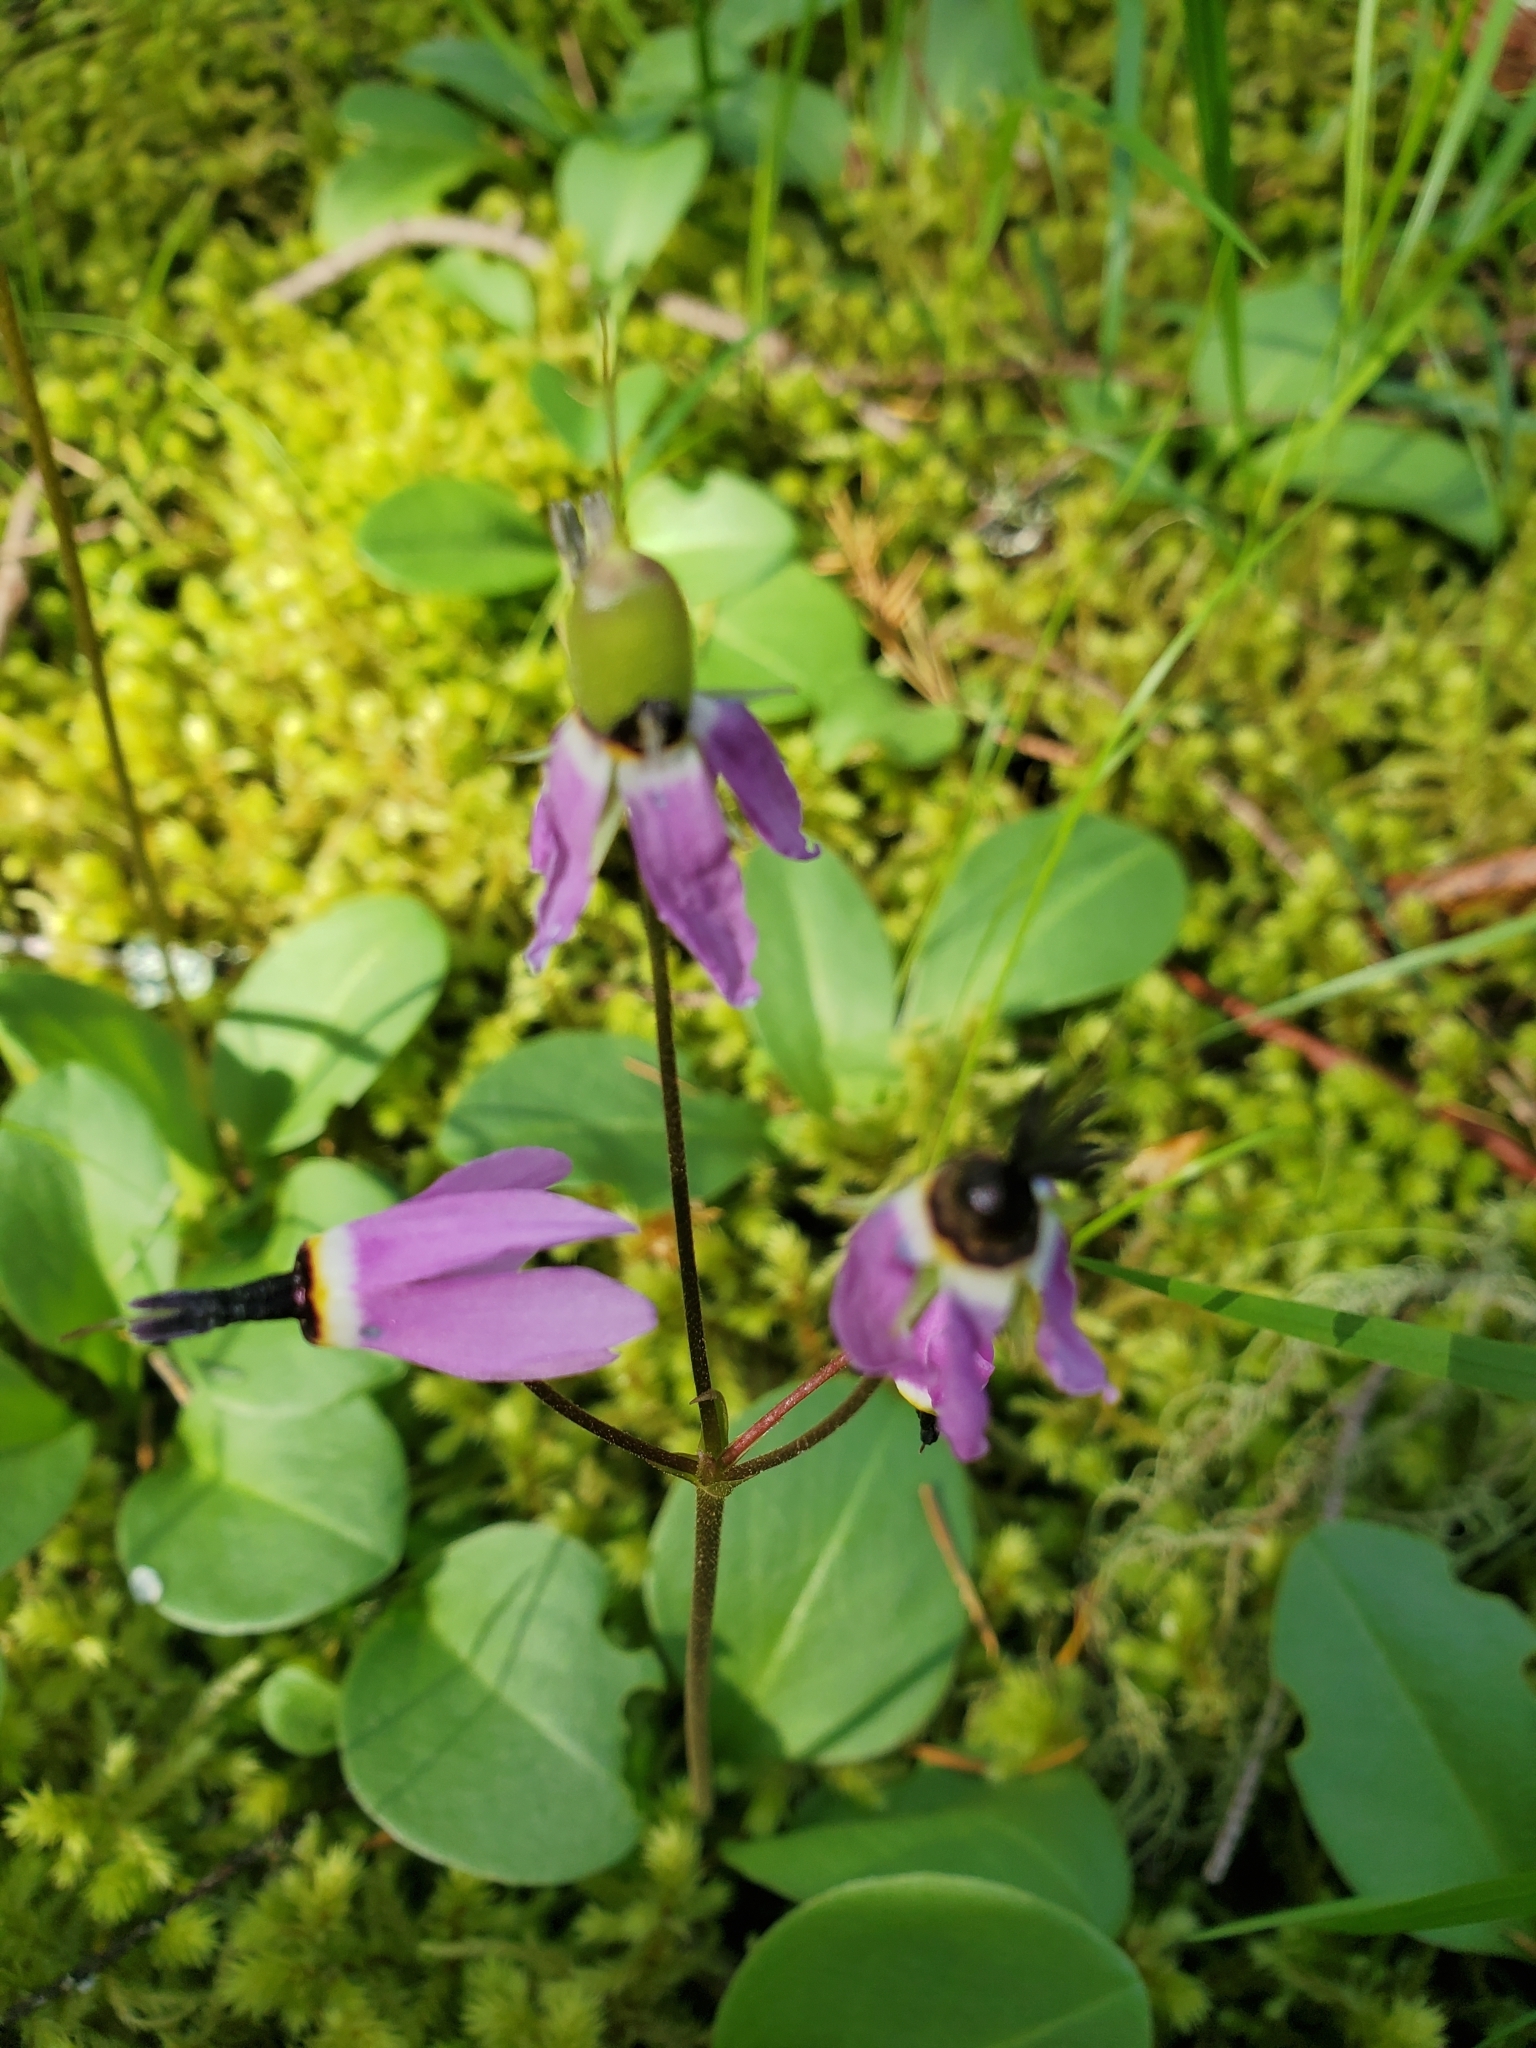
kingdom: Plantae
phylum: Tracheophyta
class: Magnoliopsida
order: Ericales
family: Primulaceae
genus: Dodecatheon
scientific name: Dodecatheon hendersonii
